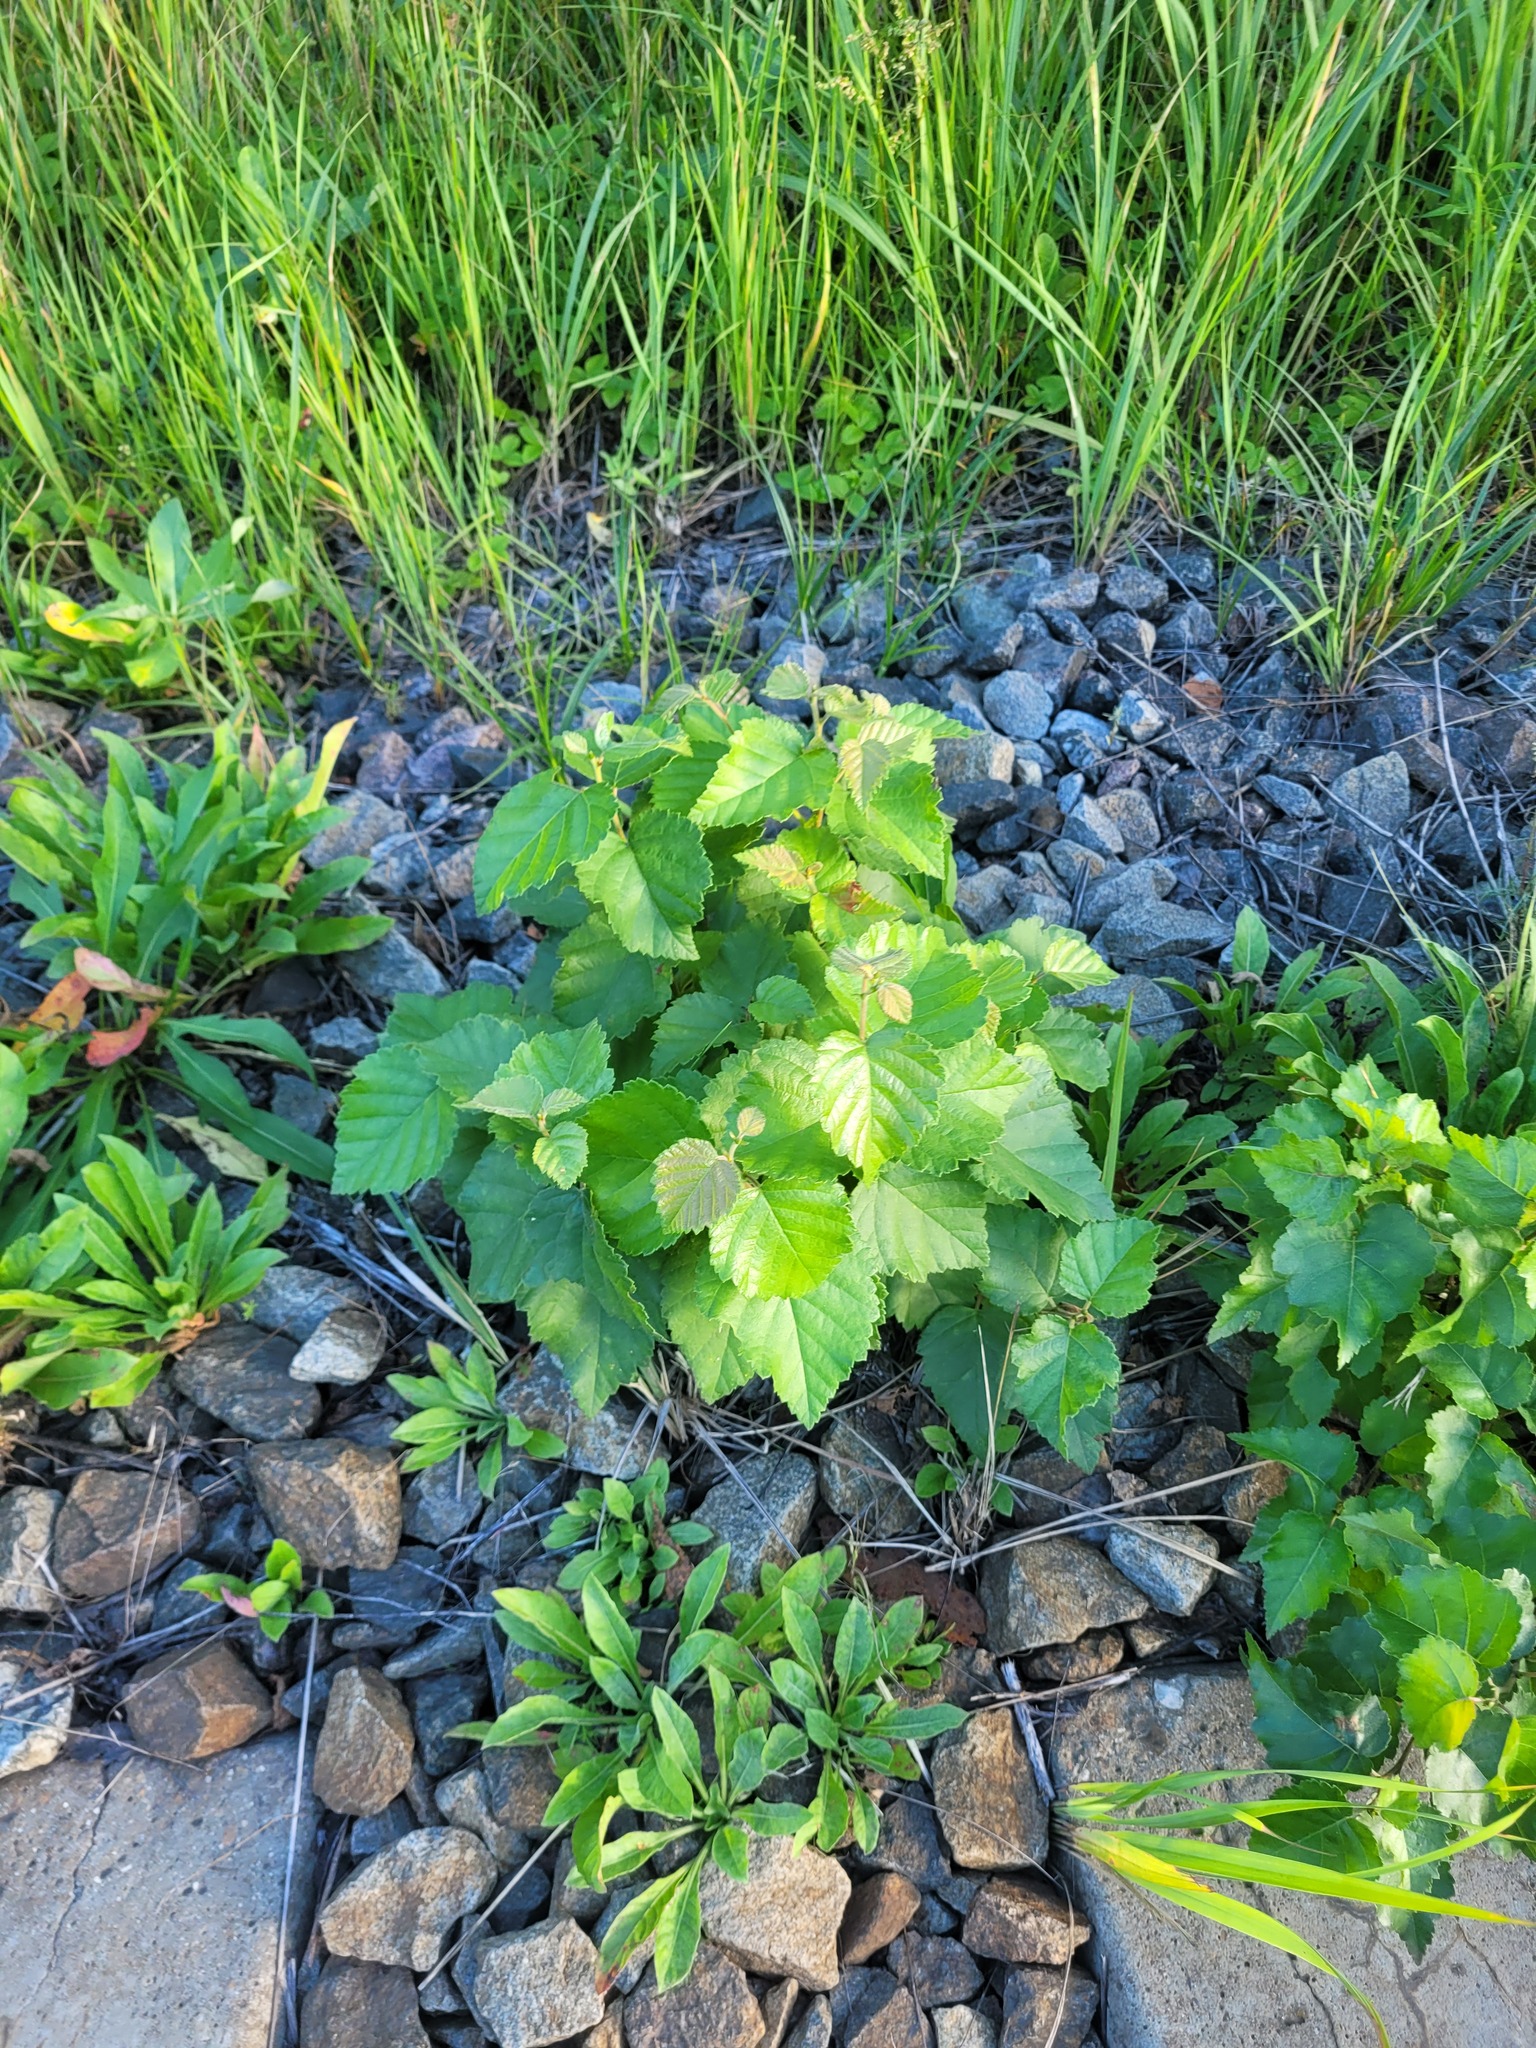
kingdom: Plantae
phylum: Tracheophyta
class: Magnoliopsida
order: Fagales
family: Betulaceae
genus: Betula
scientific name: Betula pubescens
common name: Downy birch
